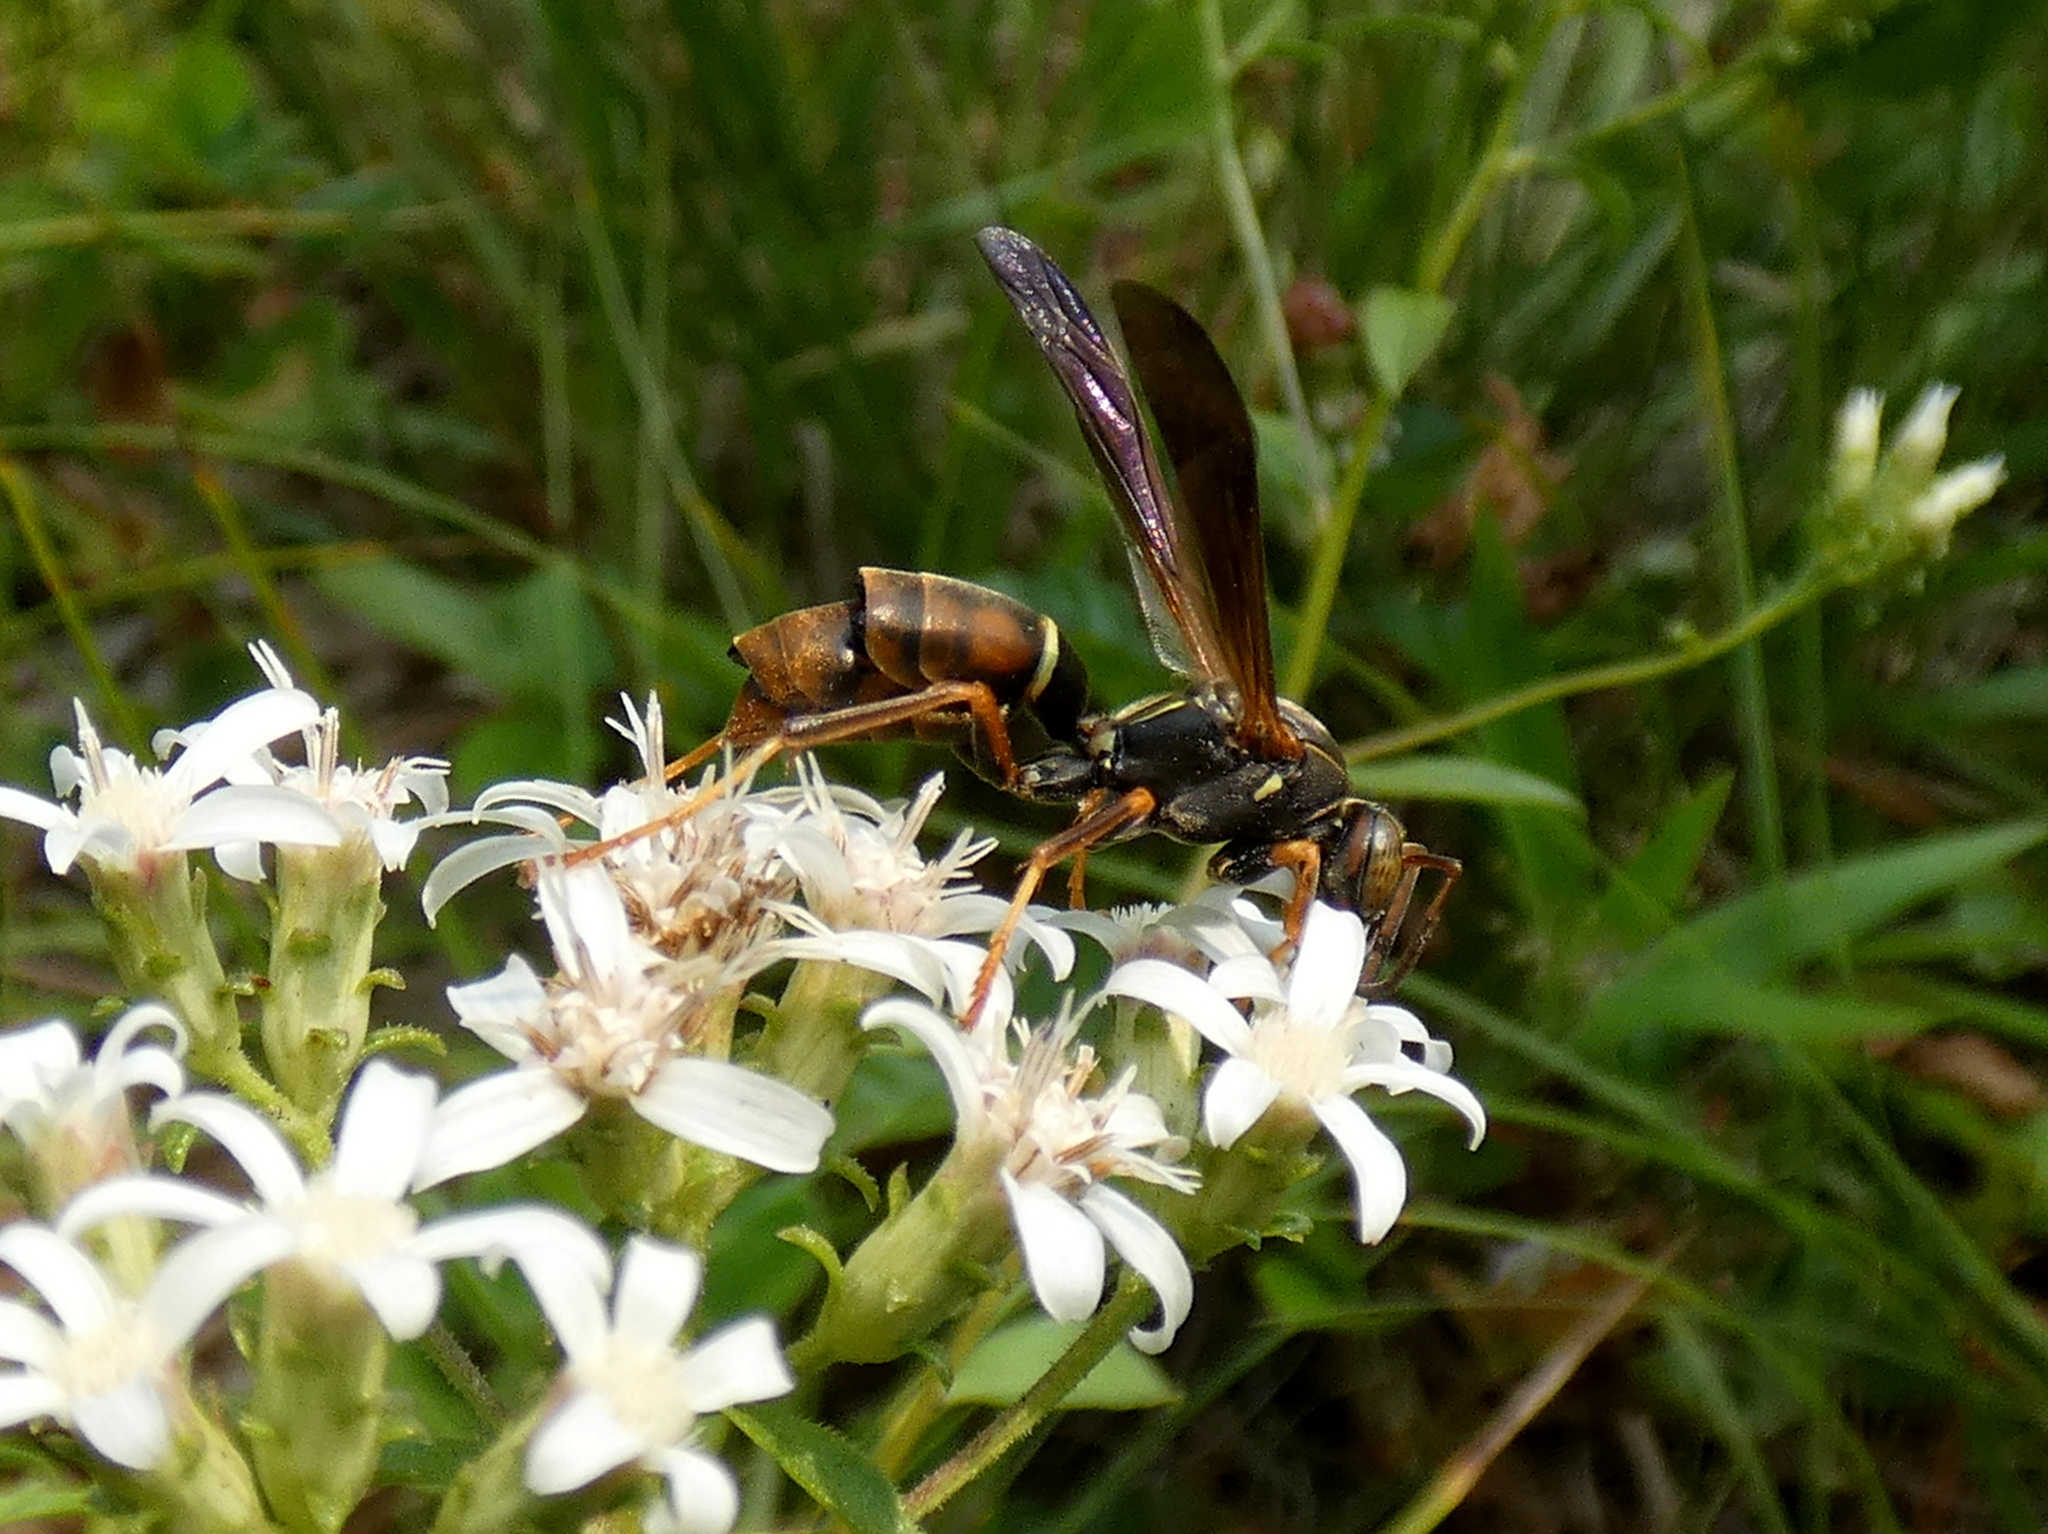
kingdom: Animalia
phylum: Arthropoda
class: Insecta
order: Hymenoptera
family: Eumenidae
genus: Polistes
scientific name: Polistes fuscatus
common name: Dark paper wasp
